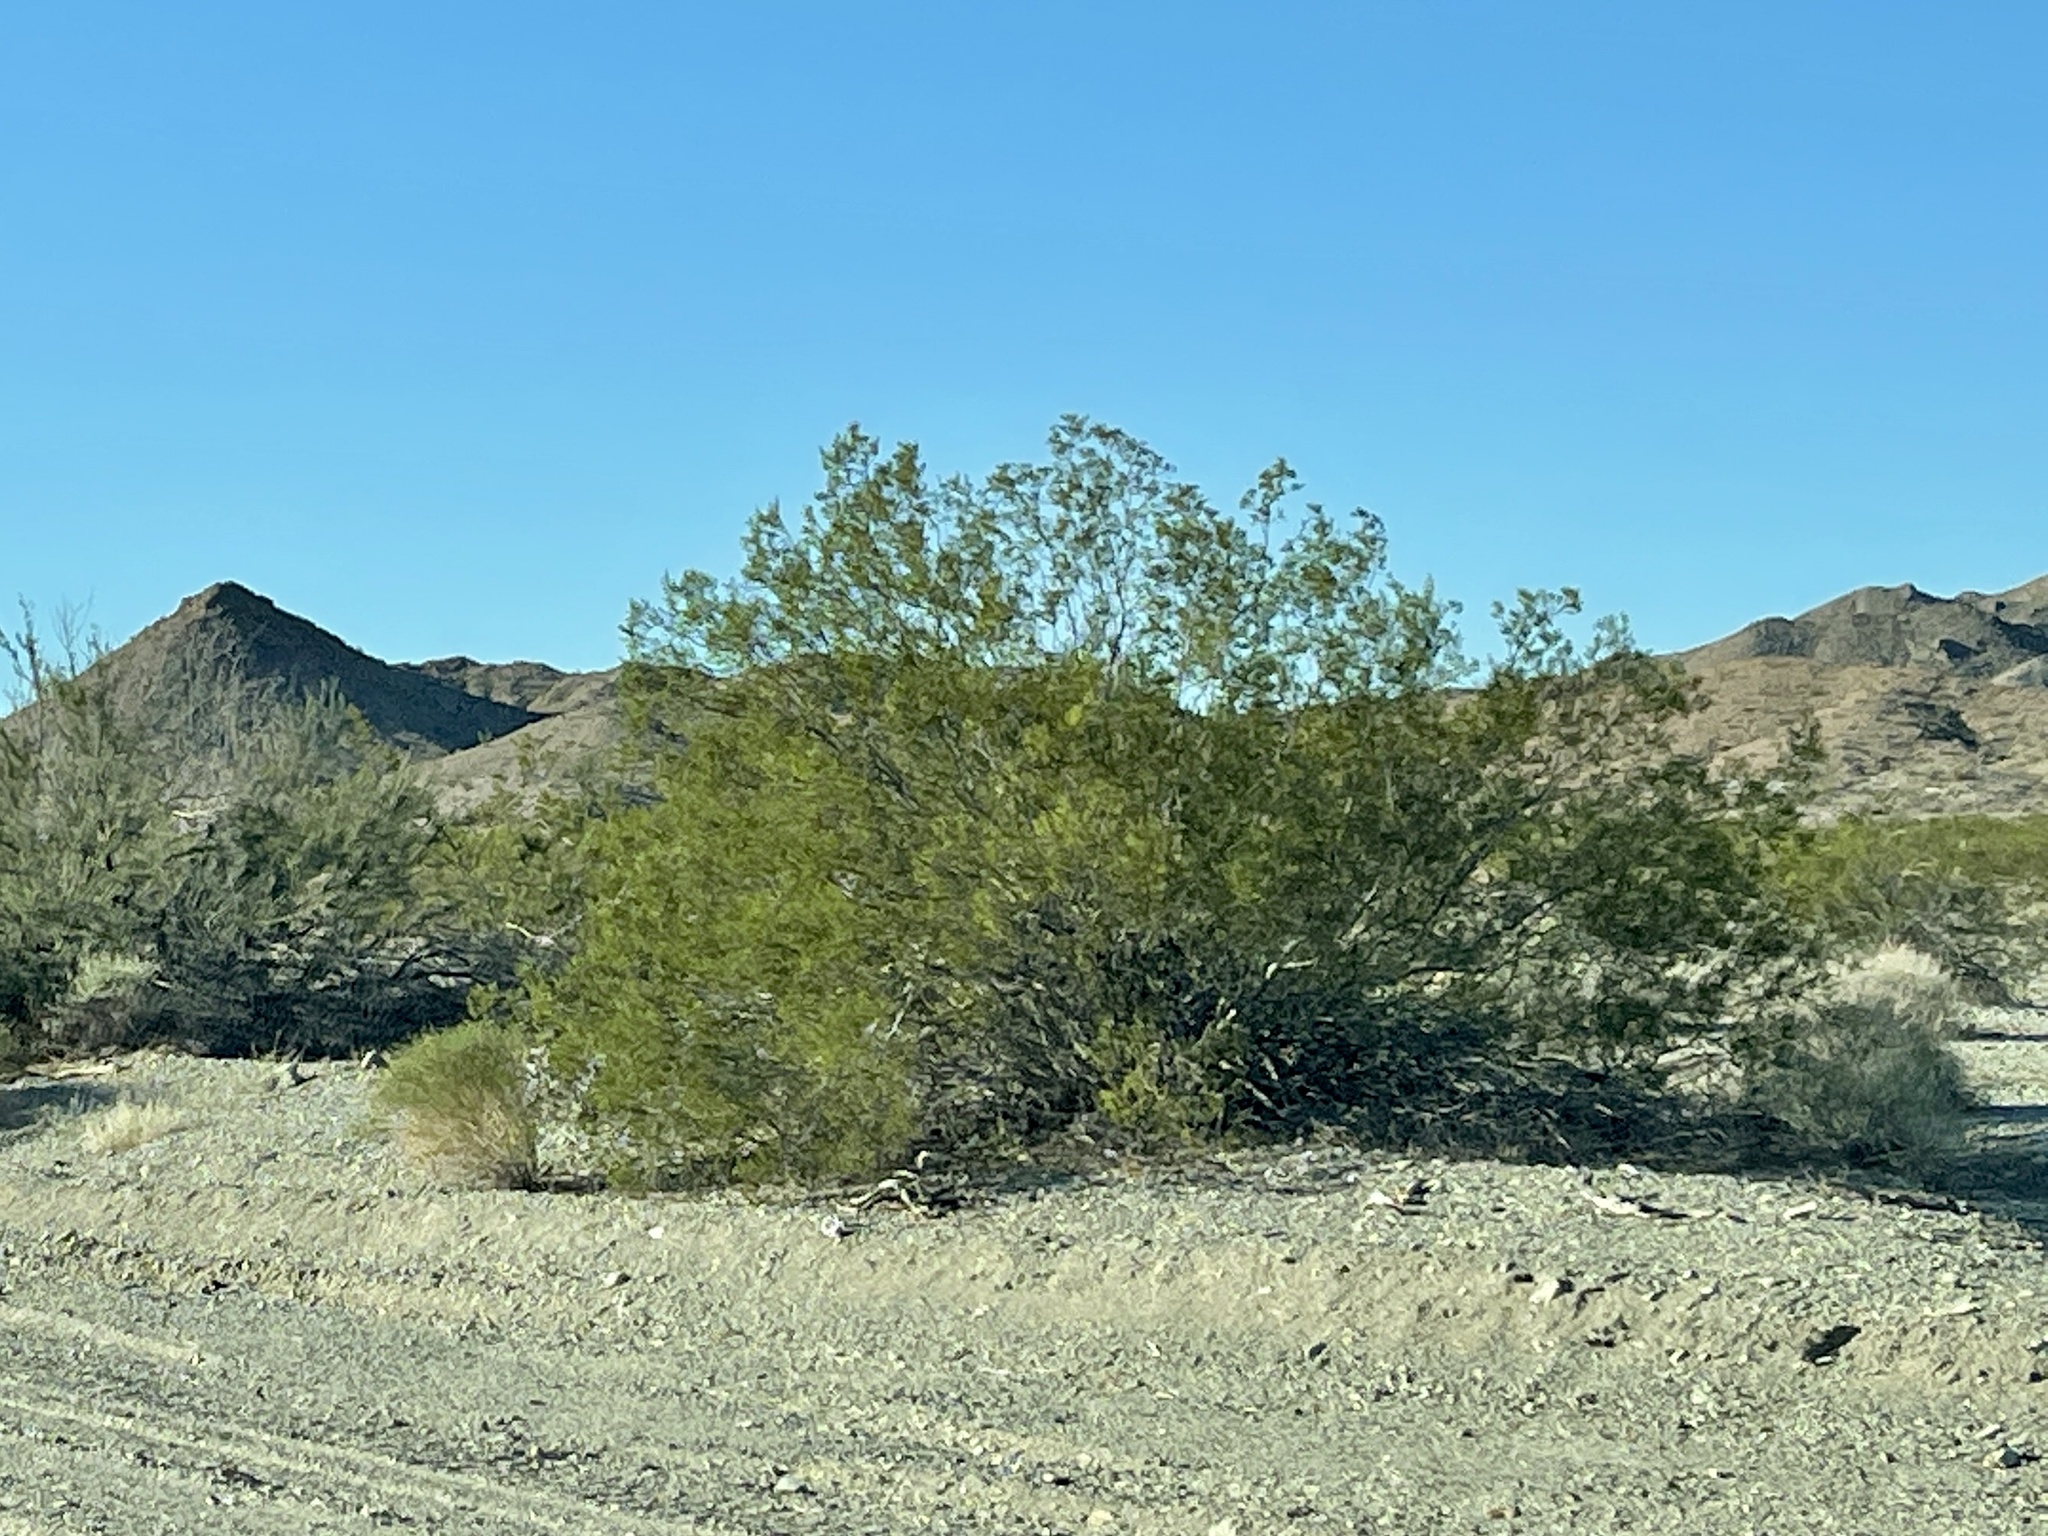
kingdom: Plantae
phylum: Tracheophyta
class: Magnoliopsida
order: Zygophyllales
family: Zygophyllaceae
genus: Larrea
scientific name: Larrea tridentata
